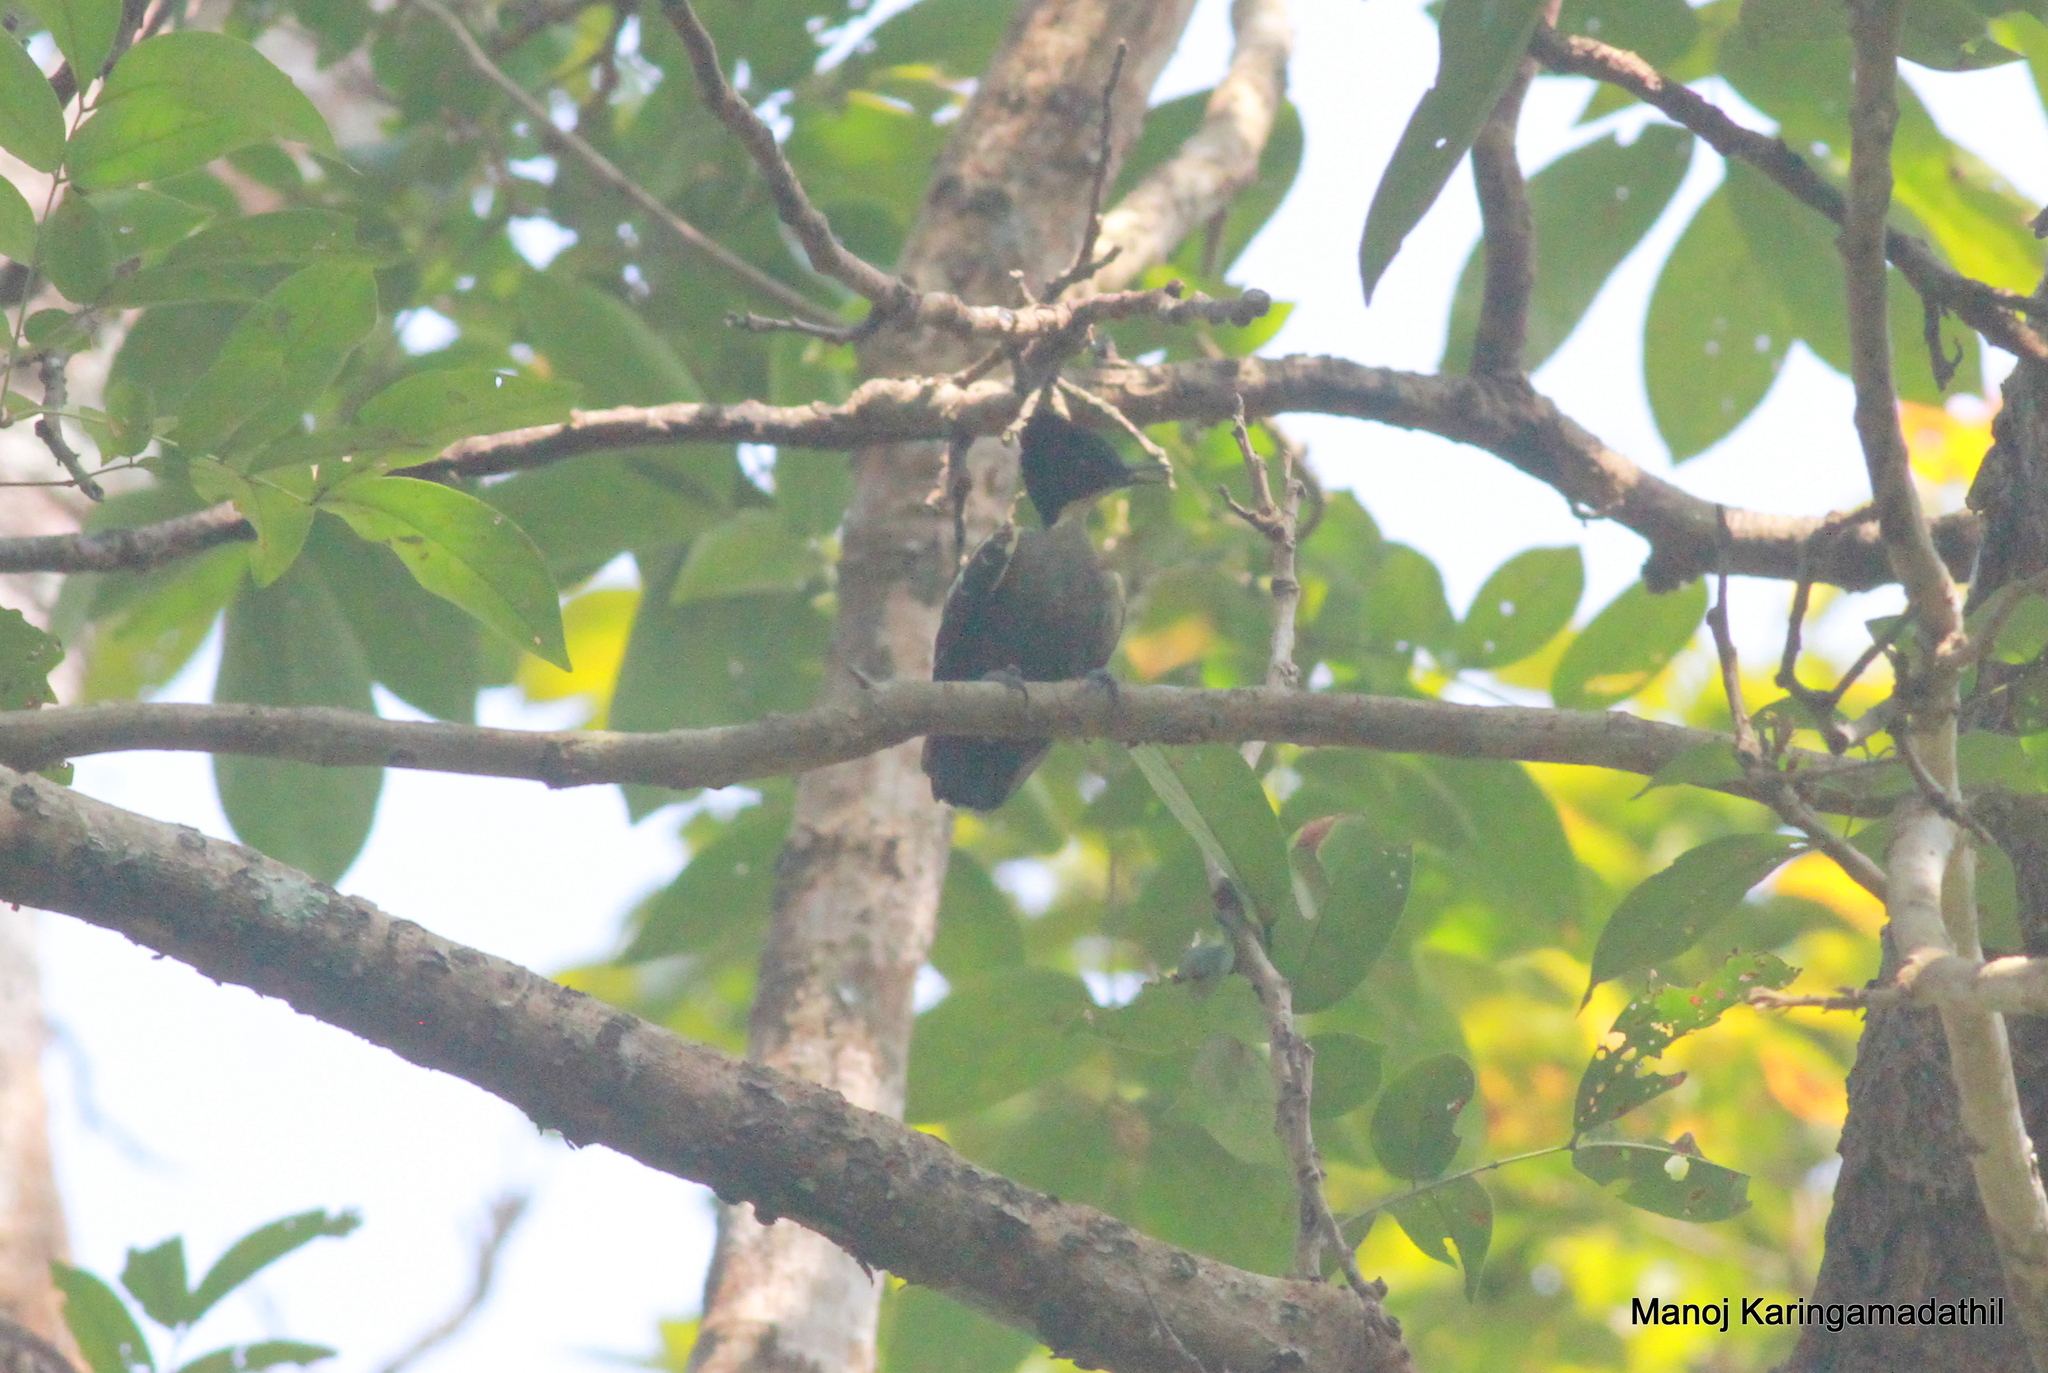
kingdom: Animalia
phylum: Chordata
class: Aves
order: Piciformes
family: Picidae
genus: Hemicircus
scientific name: Hemicircus canente
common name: Heart-spotted woodpecker
